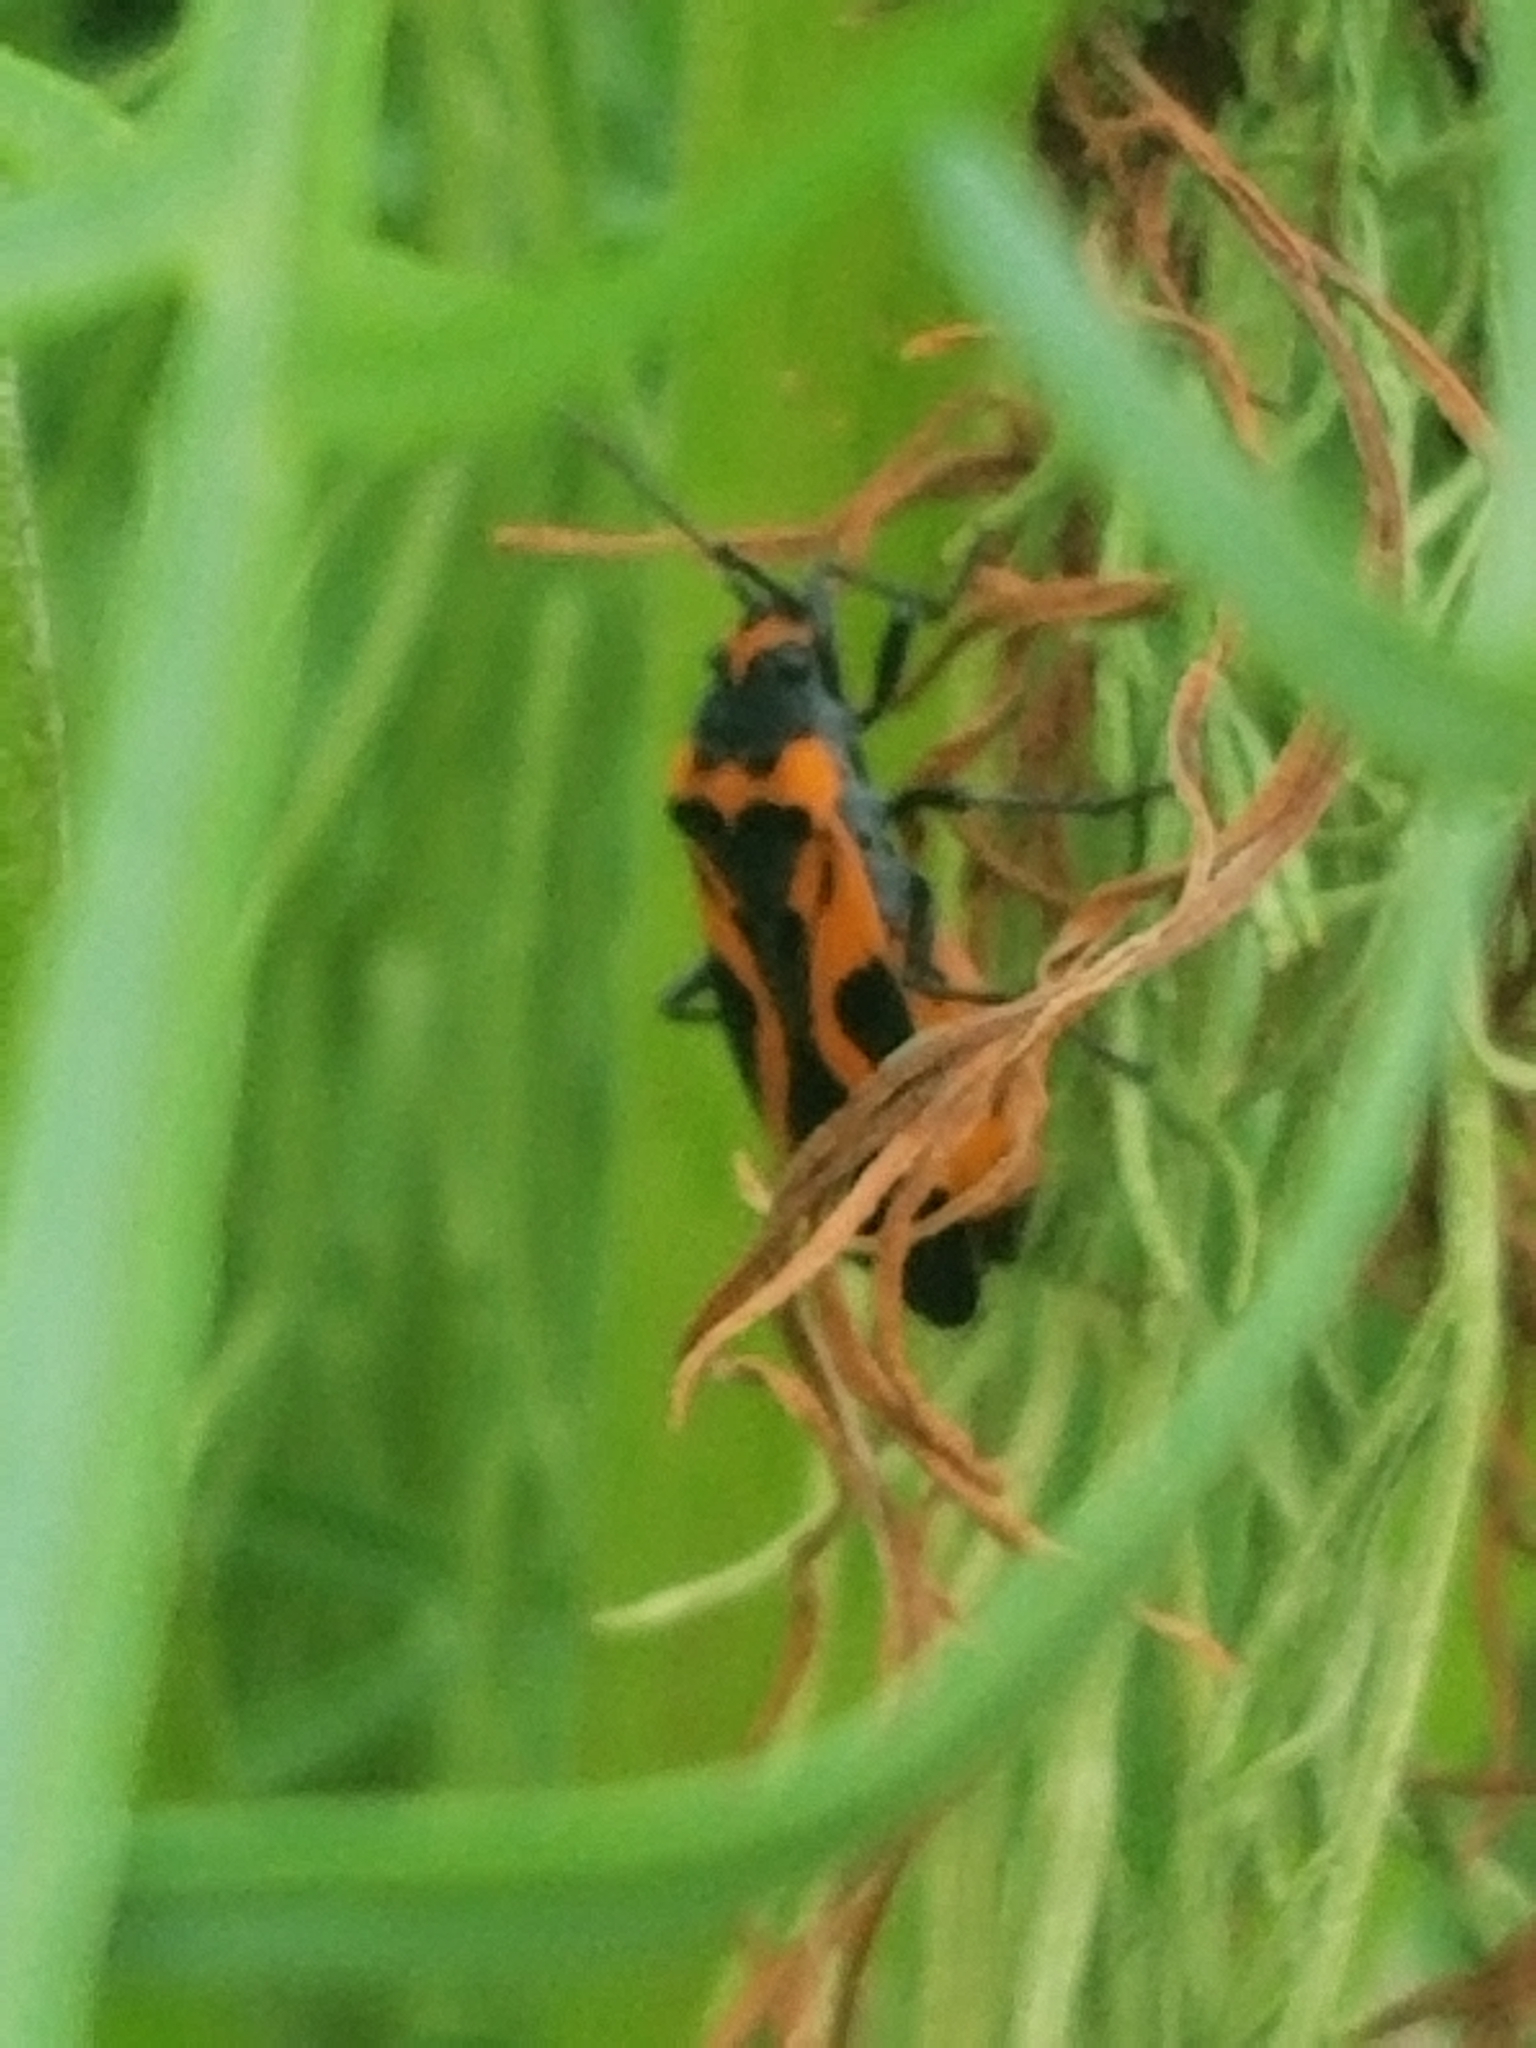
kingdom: Animalia
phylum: Arthropoda
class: Insecta
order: Hemiptera
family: Lygaeidae
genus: Lygaeus
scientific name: Lygaeus turcicus
